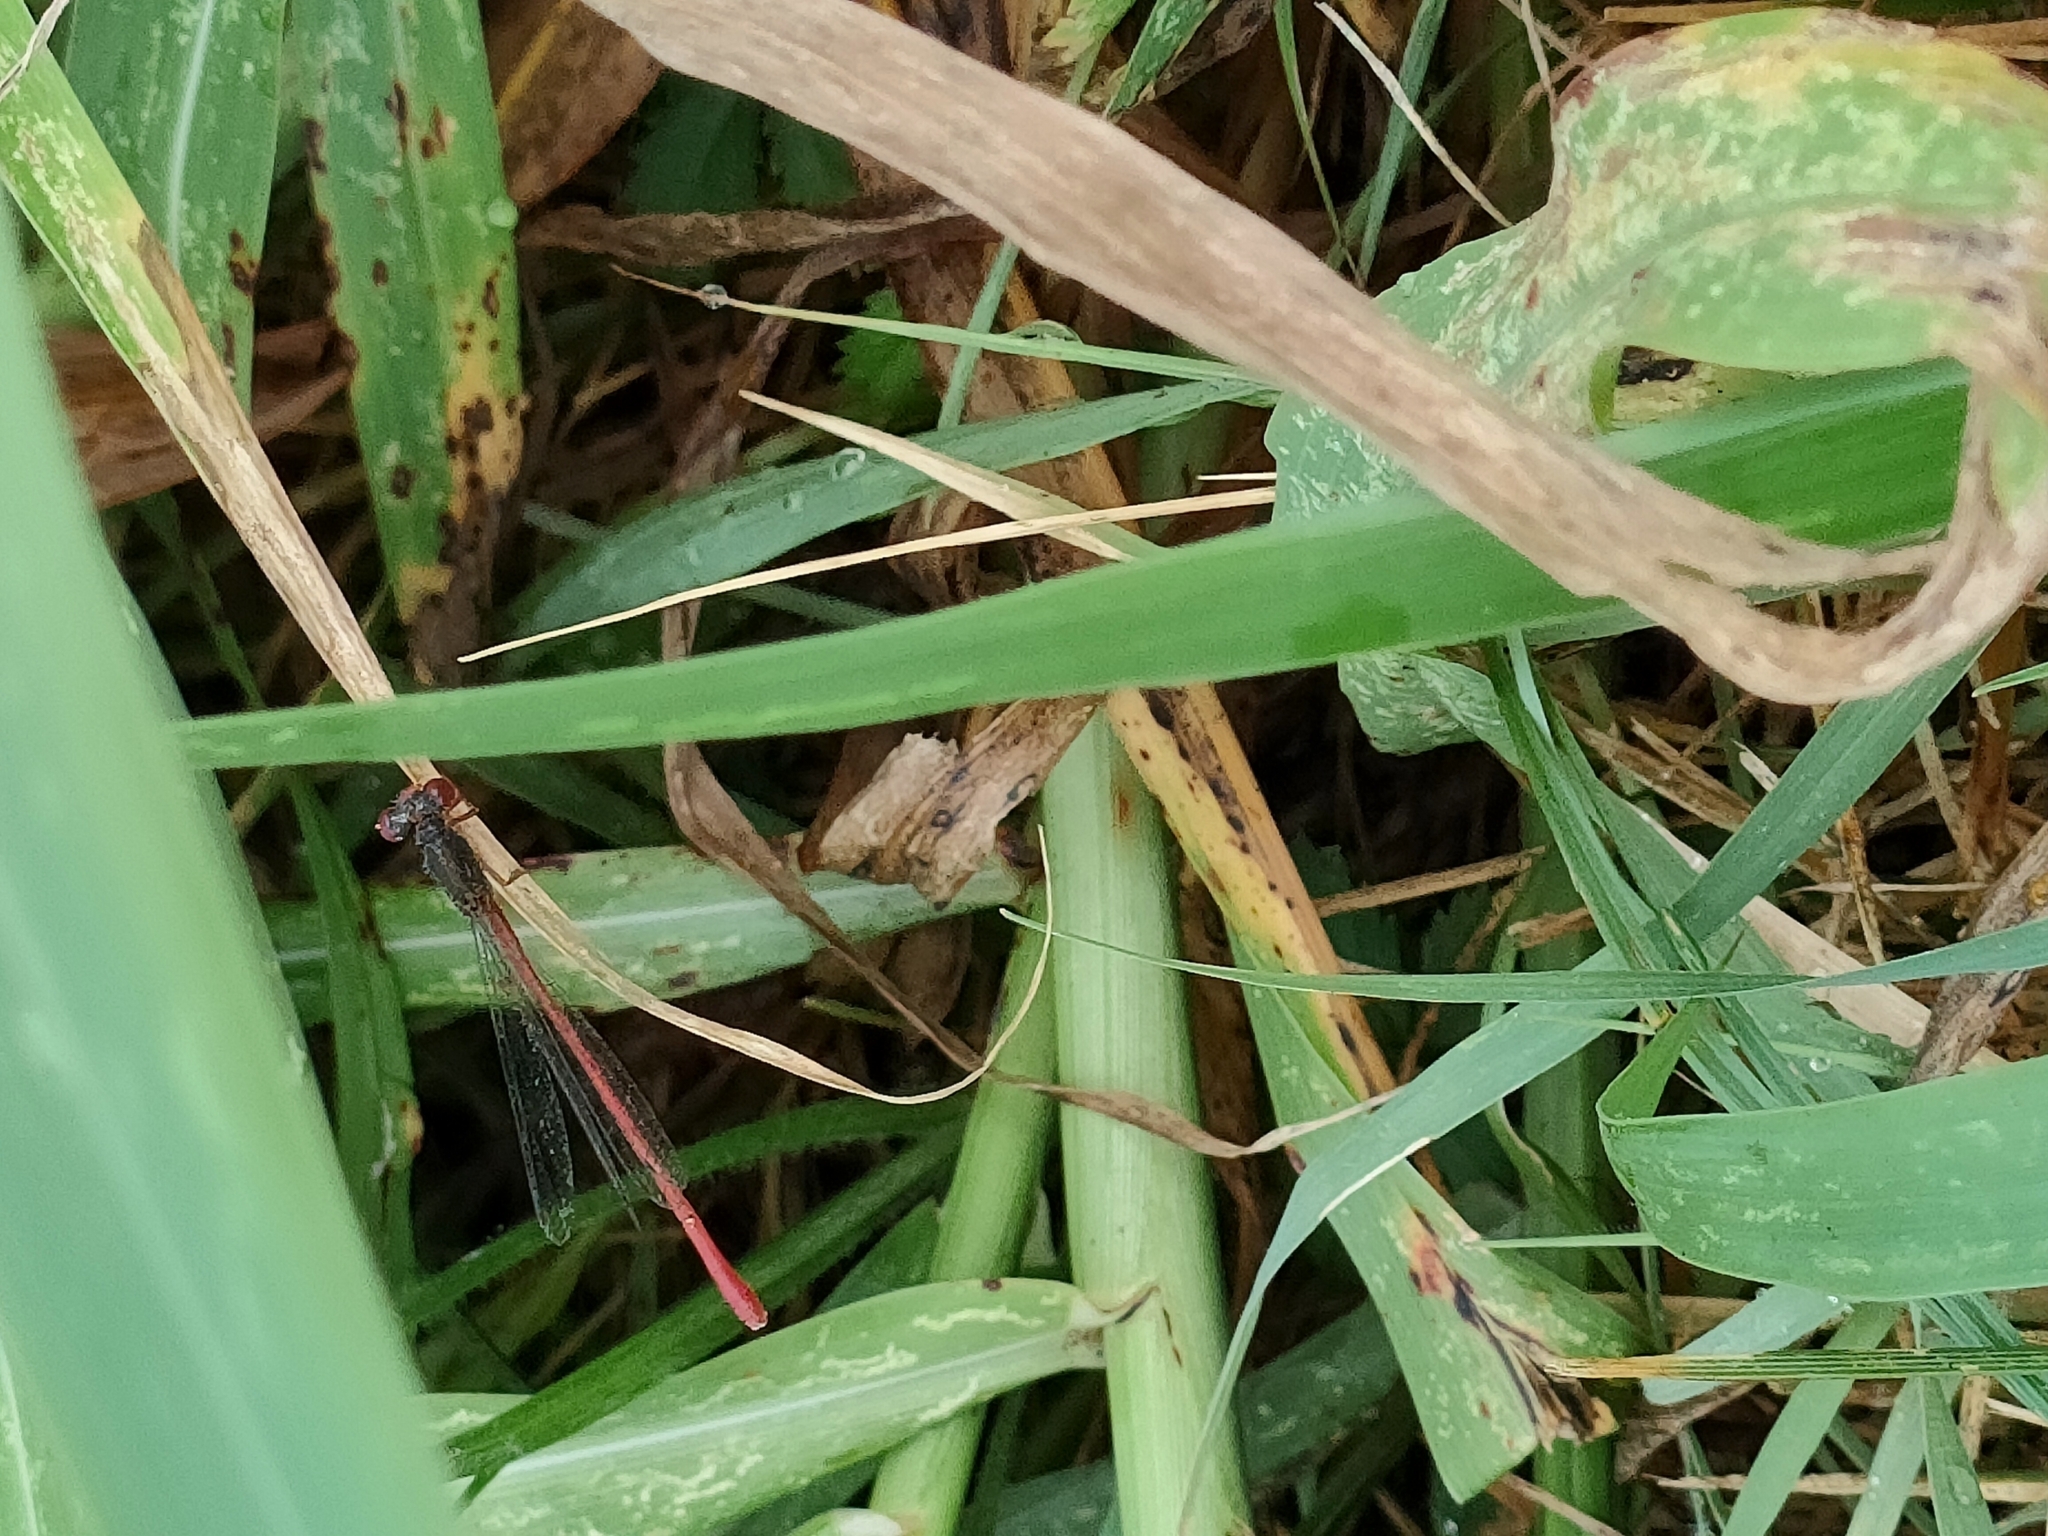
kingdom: Animalia
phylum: Arthropoda
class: Insecta
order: Odonata
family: Coenagrionidae
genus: Ceriagrion
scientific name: Ceriagrion tenellum
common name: Small red damselfly
